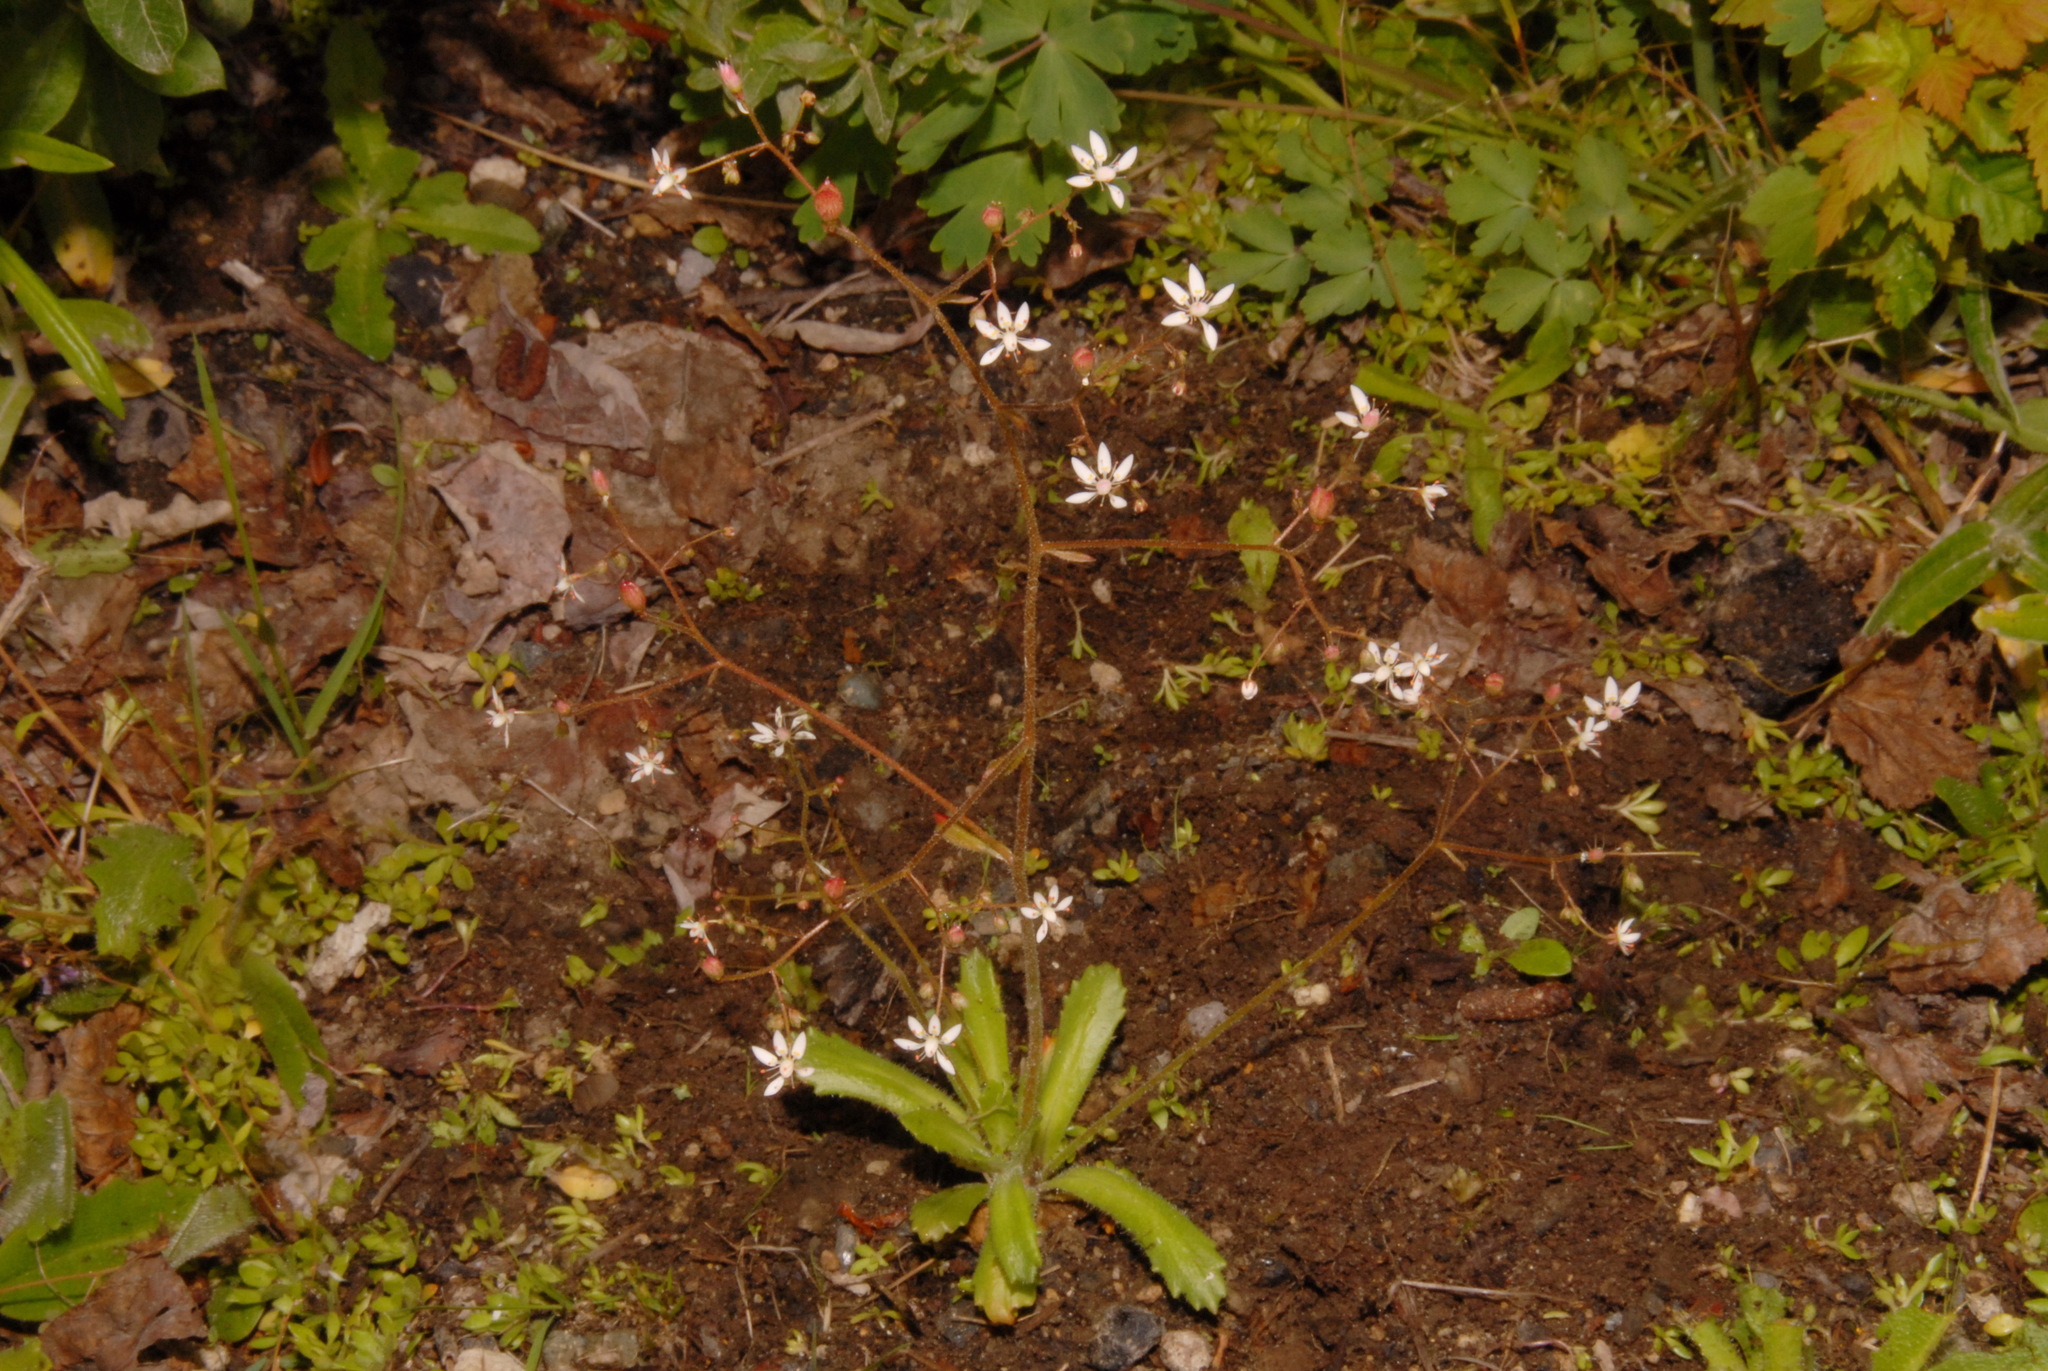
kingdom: Plantae
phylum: Tracheophyta
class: Magnoliopsida
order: Saxifragales
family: Saxifragaceae
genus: Micranthes
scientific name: Micranthes ferruginea
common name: Rusty saxifrage
